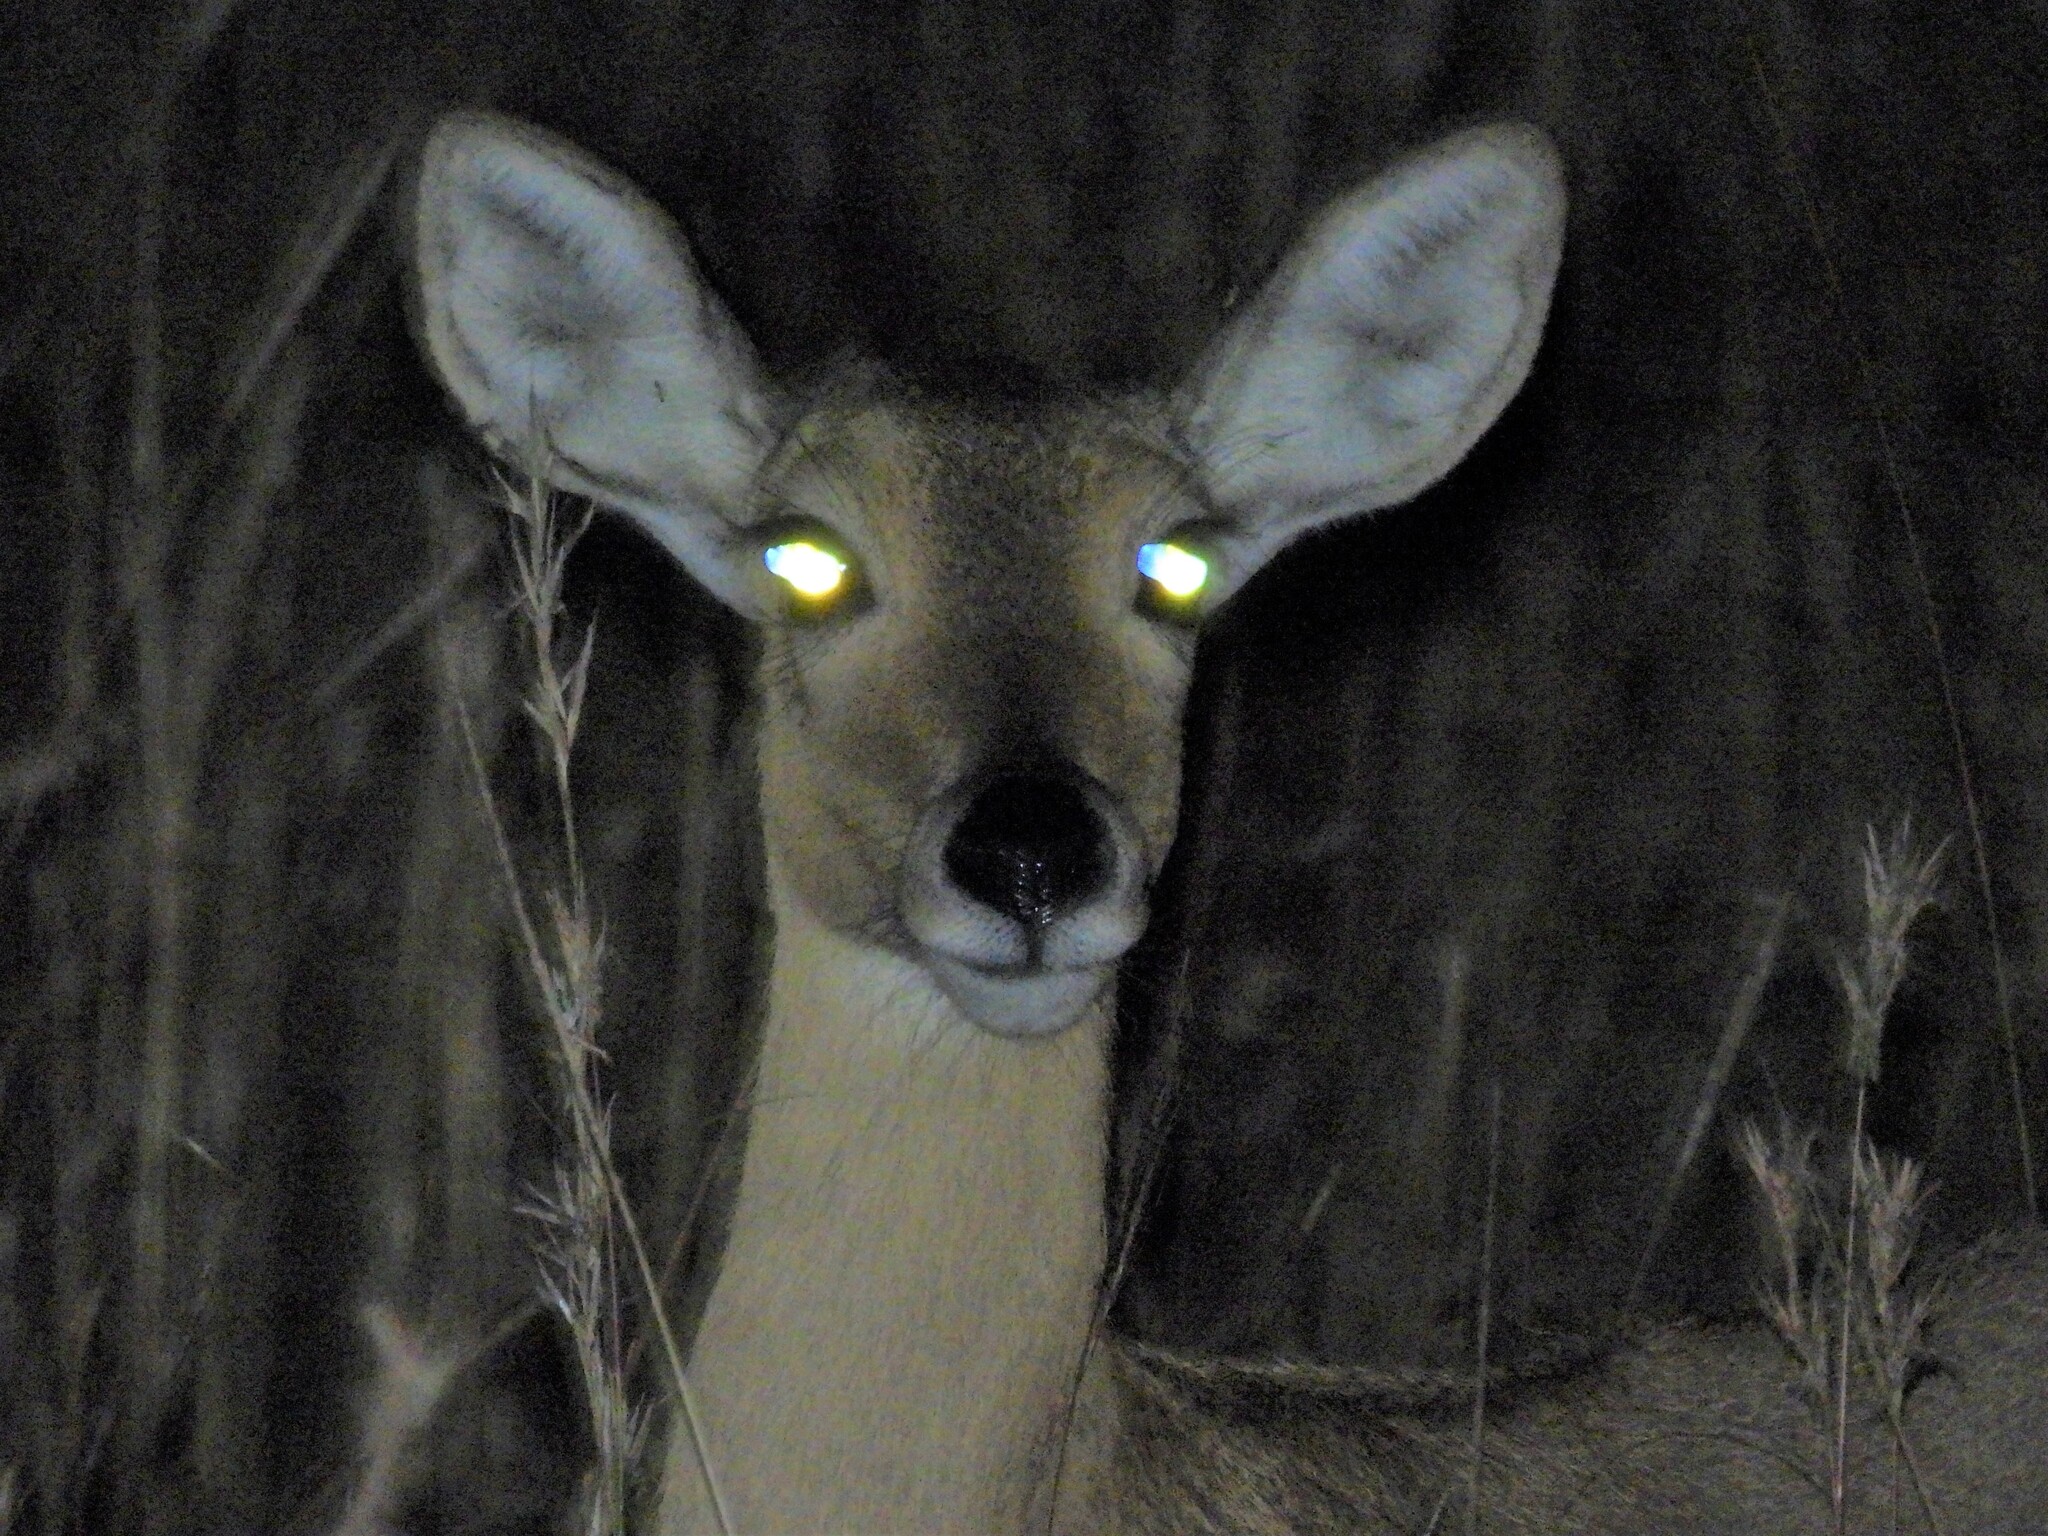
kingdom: Animalia
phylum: Chordata
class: Mammalia
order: Artiodactyla
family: Bovidae
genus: Redunca
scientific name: Redunca arundinum
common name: Southern reedbuck
